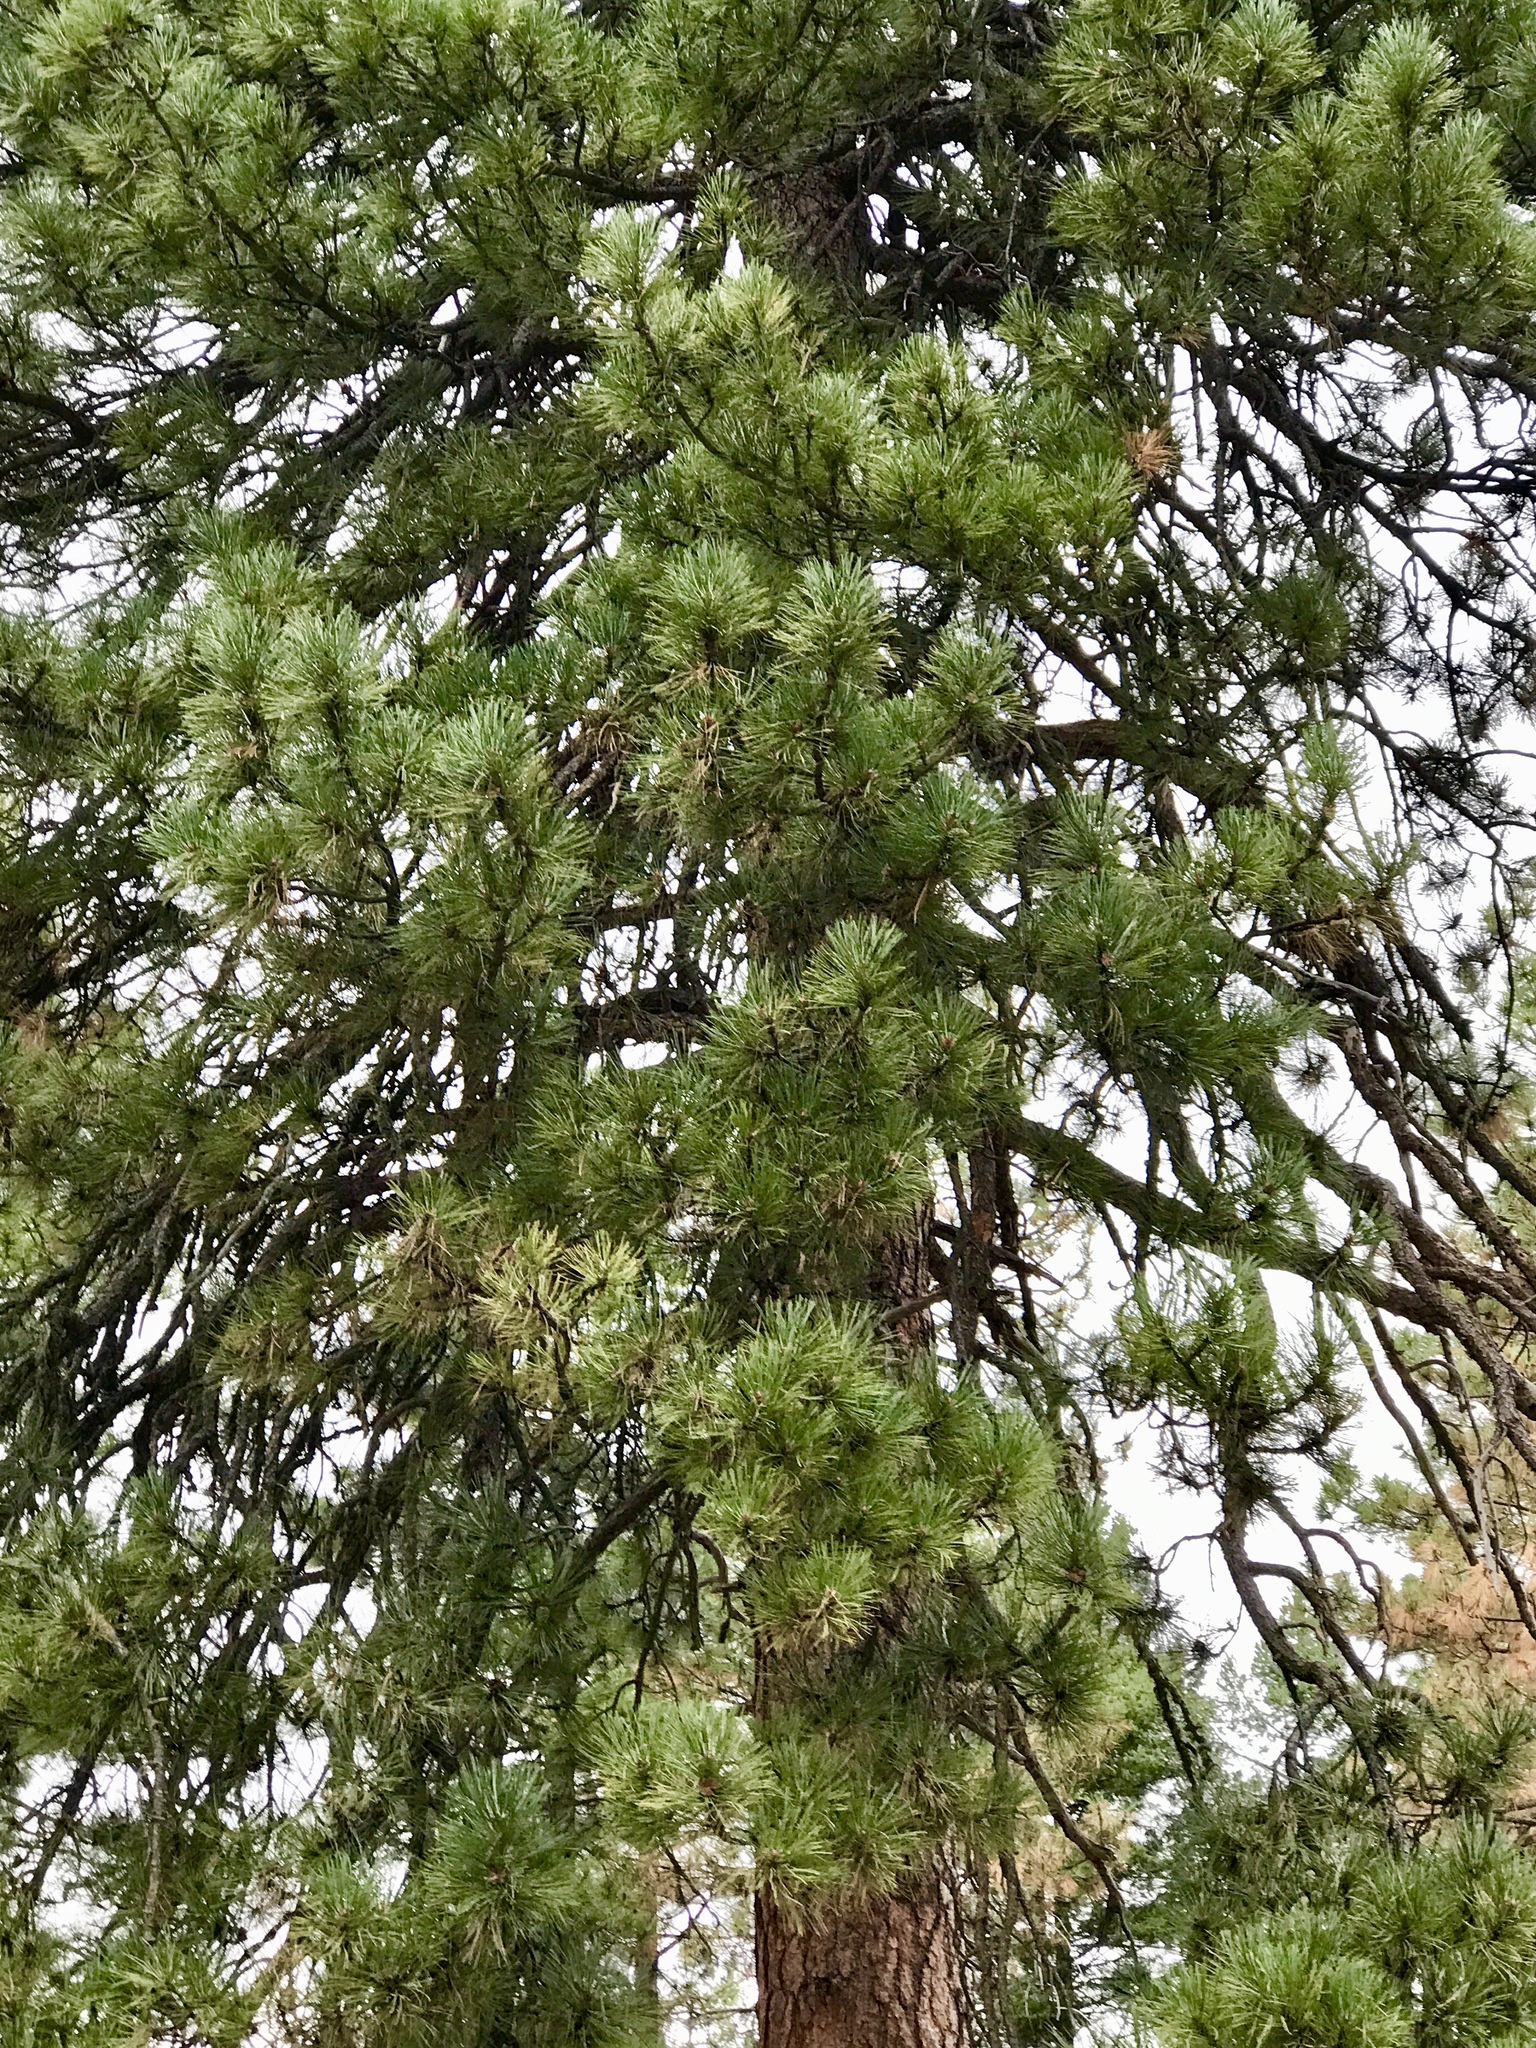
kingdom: Plantae
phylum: Tracheophyta
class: Pinopsida
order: Pinales
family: Pinaceae
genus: Pinus
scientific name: Pinus ponderosa
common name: Western yellow-pine
